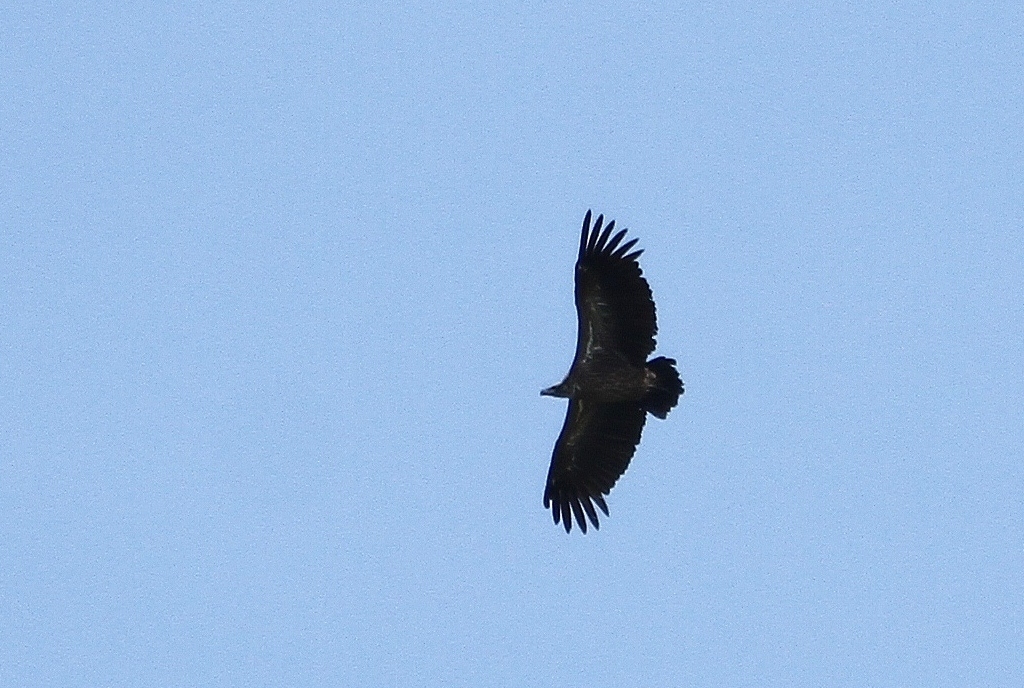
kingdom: Animalia
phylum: Chordata
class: Aves
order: Accipitriformes
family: Accipitridae
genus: Torgos
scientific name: Torgos tracheliotos
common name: Lappet-faced vulture
